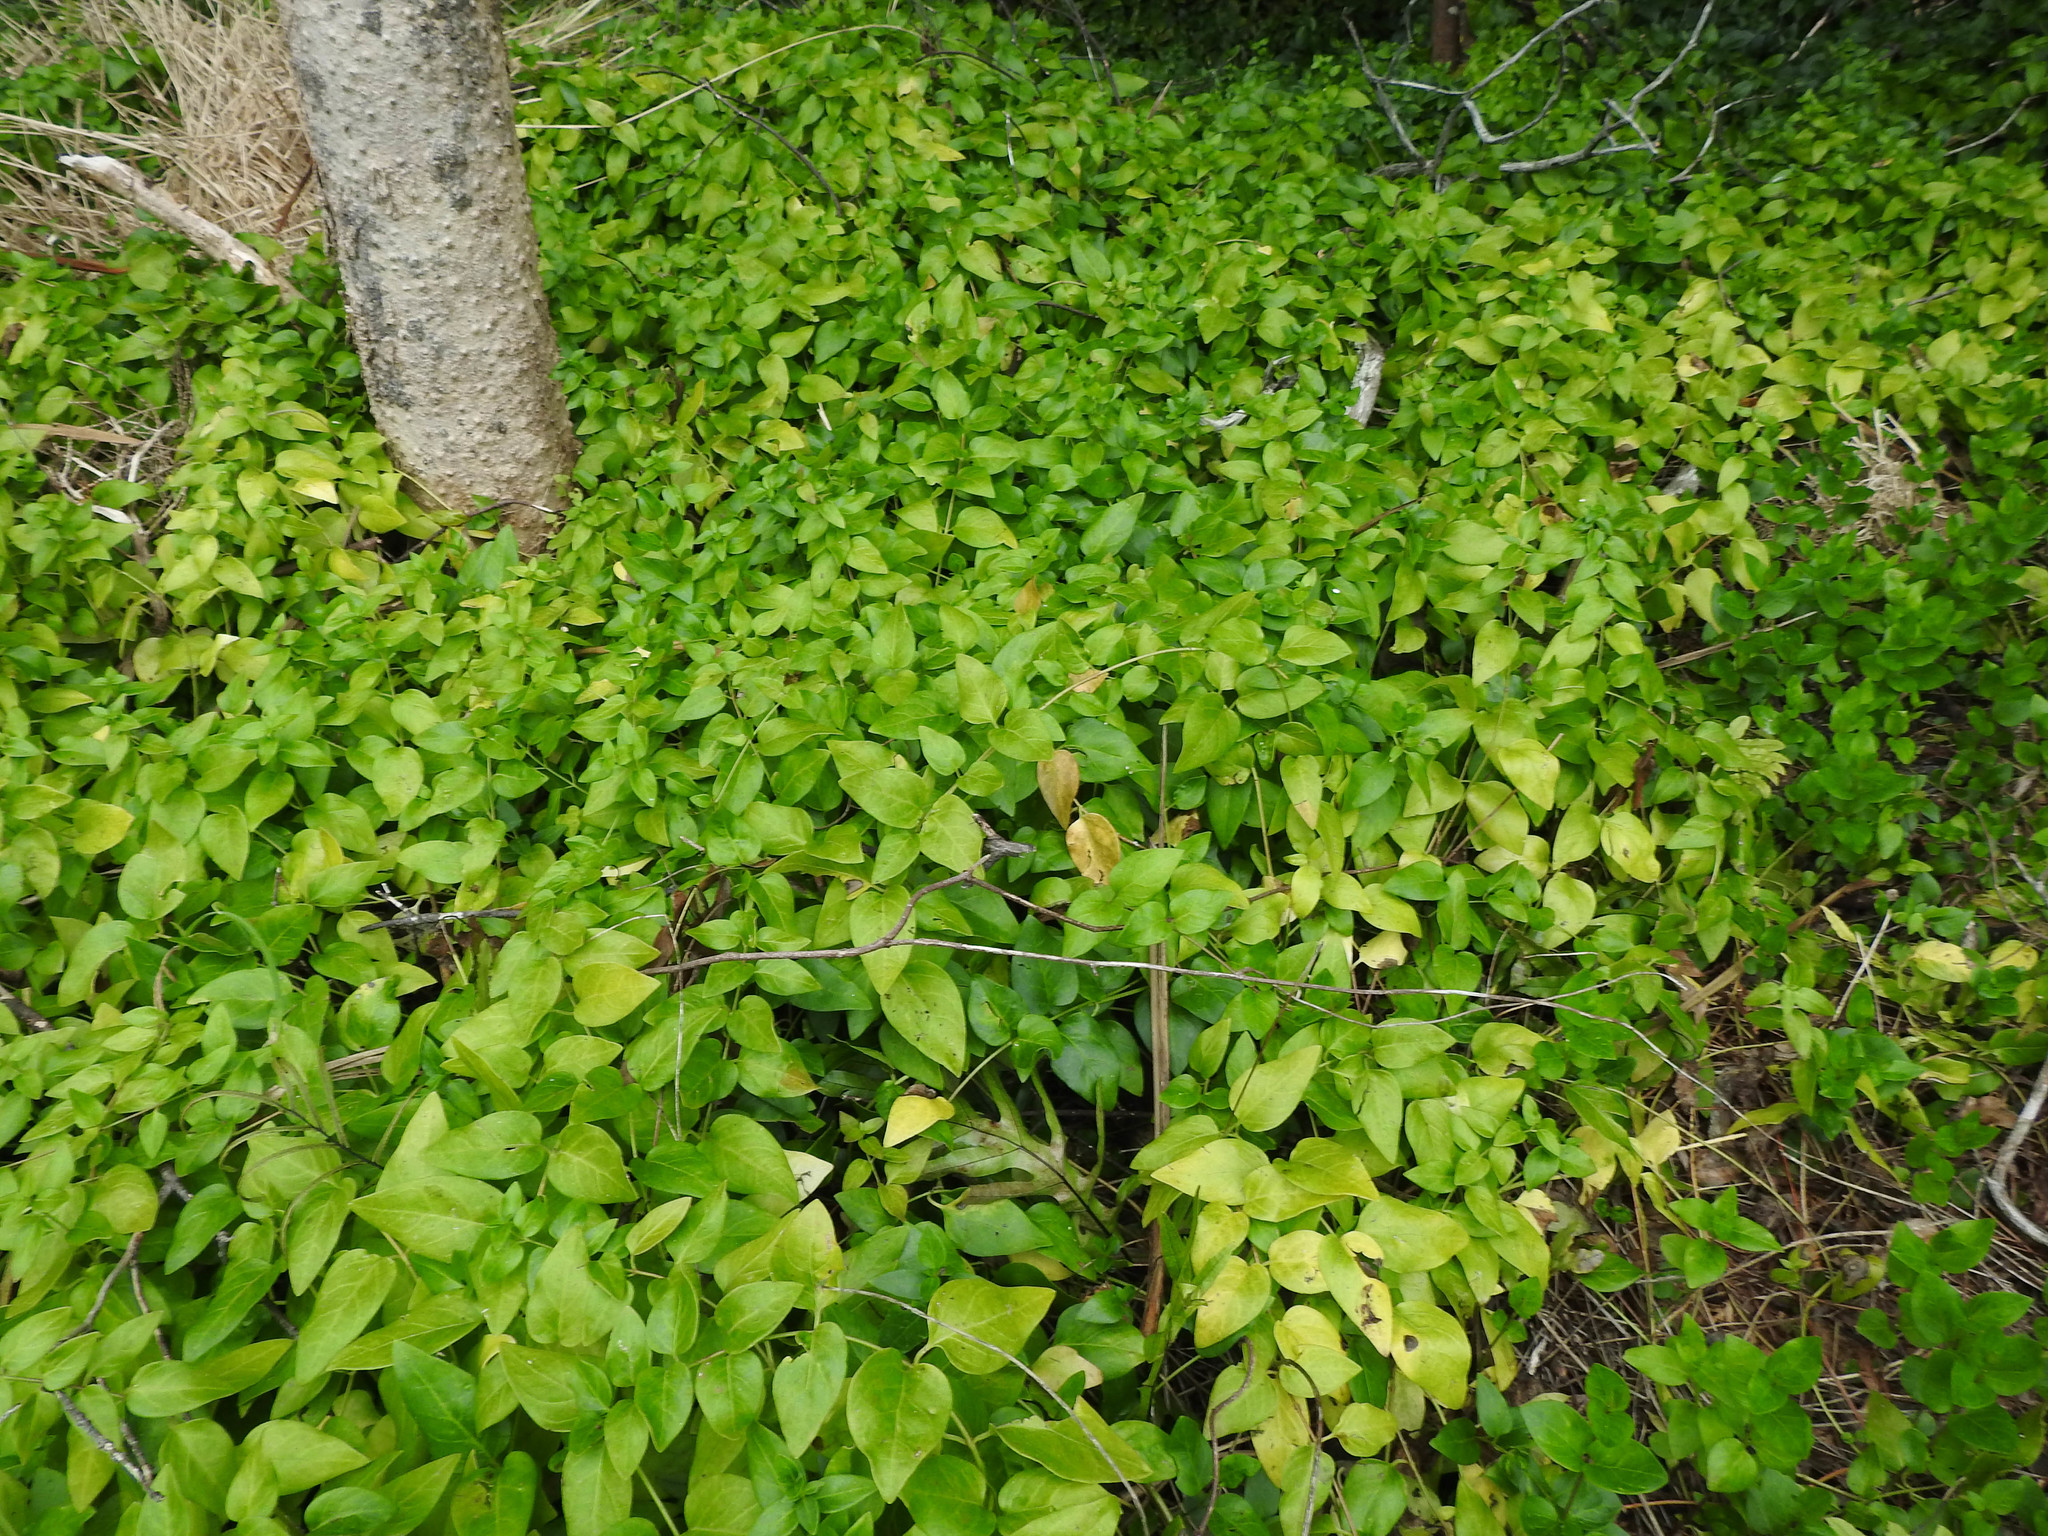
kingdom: Plantae
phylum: Tracheophyta
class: Magnoliopsida
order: Gentianales
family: Apocynaceae
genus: Vinca
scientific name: Vinca major
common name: Greater periwinkle
